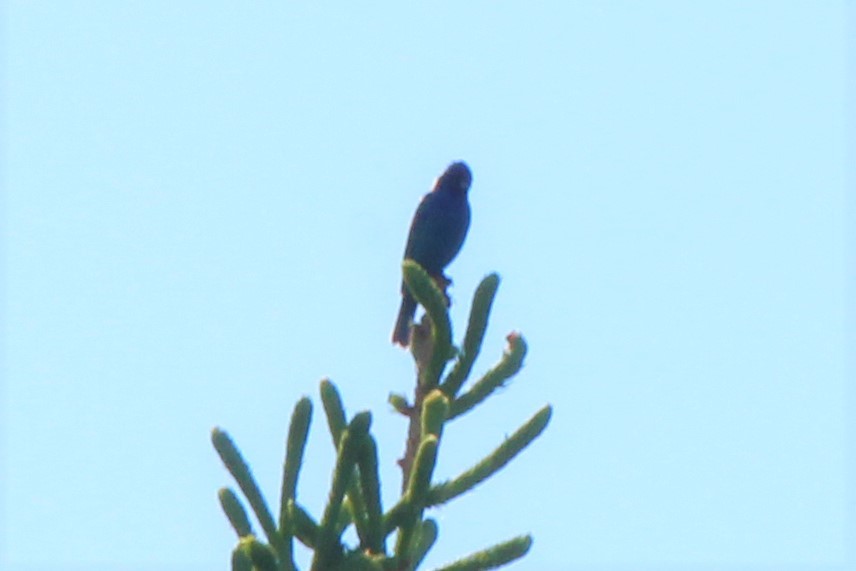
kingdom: Animalia
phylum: Chordata
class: Aves
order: Passeriformes
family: Cardinalidae
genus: Passerina
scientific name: Passerina cyanea
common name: Indigo bunting
